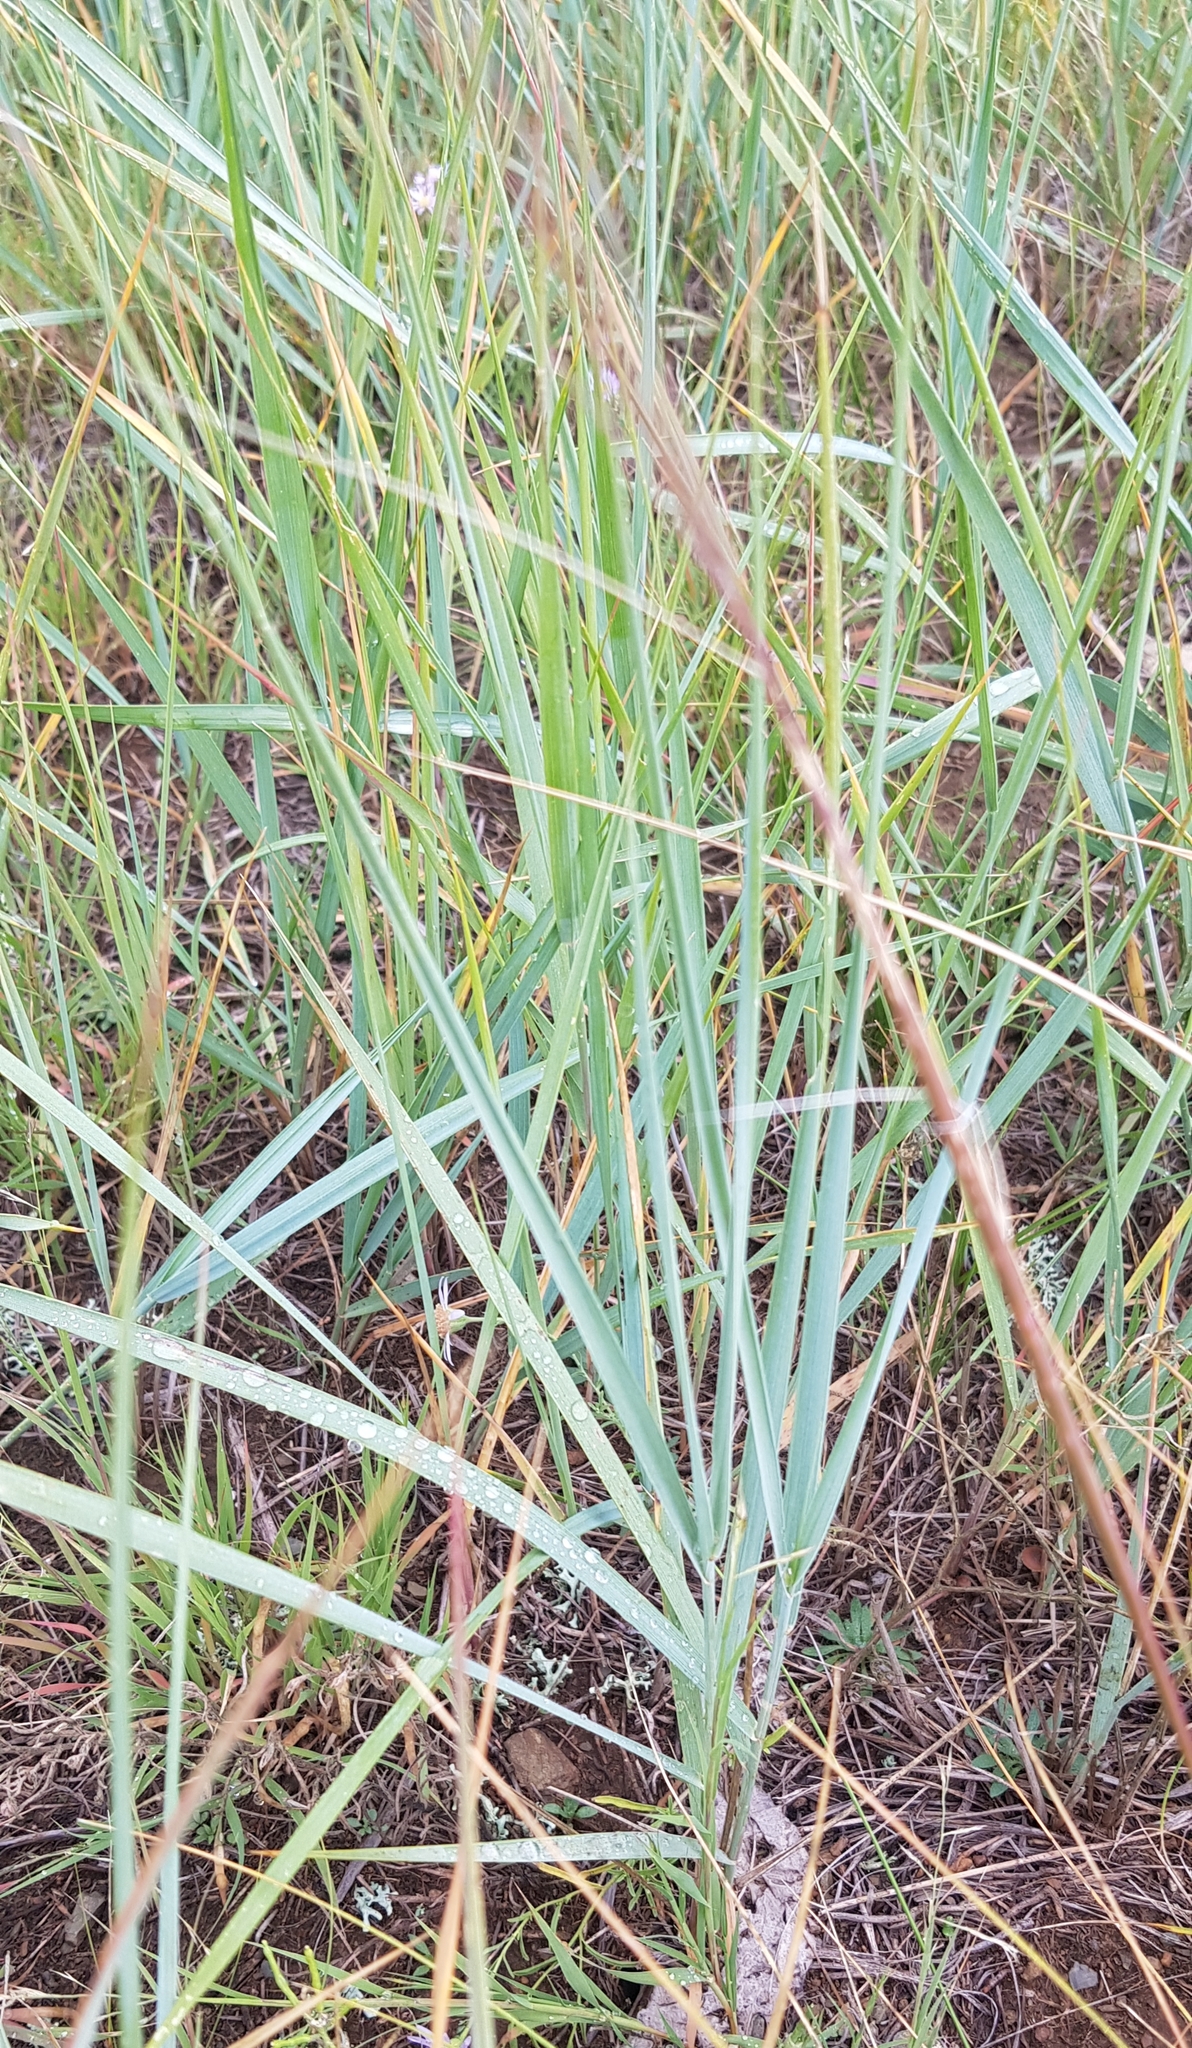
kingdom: Plantae
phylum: Tracheophyta
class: Liliopsida
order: Poales
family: Poaceae
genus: Leymus
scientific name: Leymus chinensis
